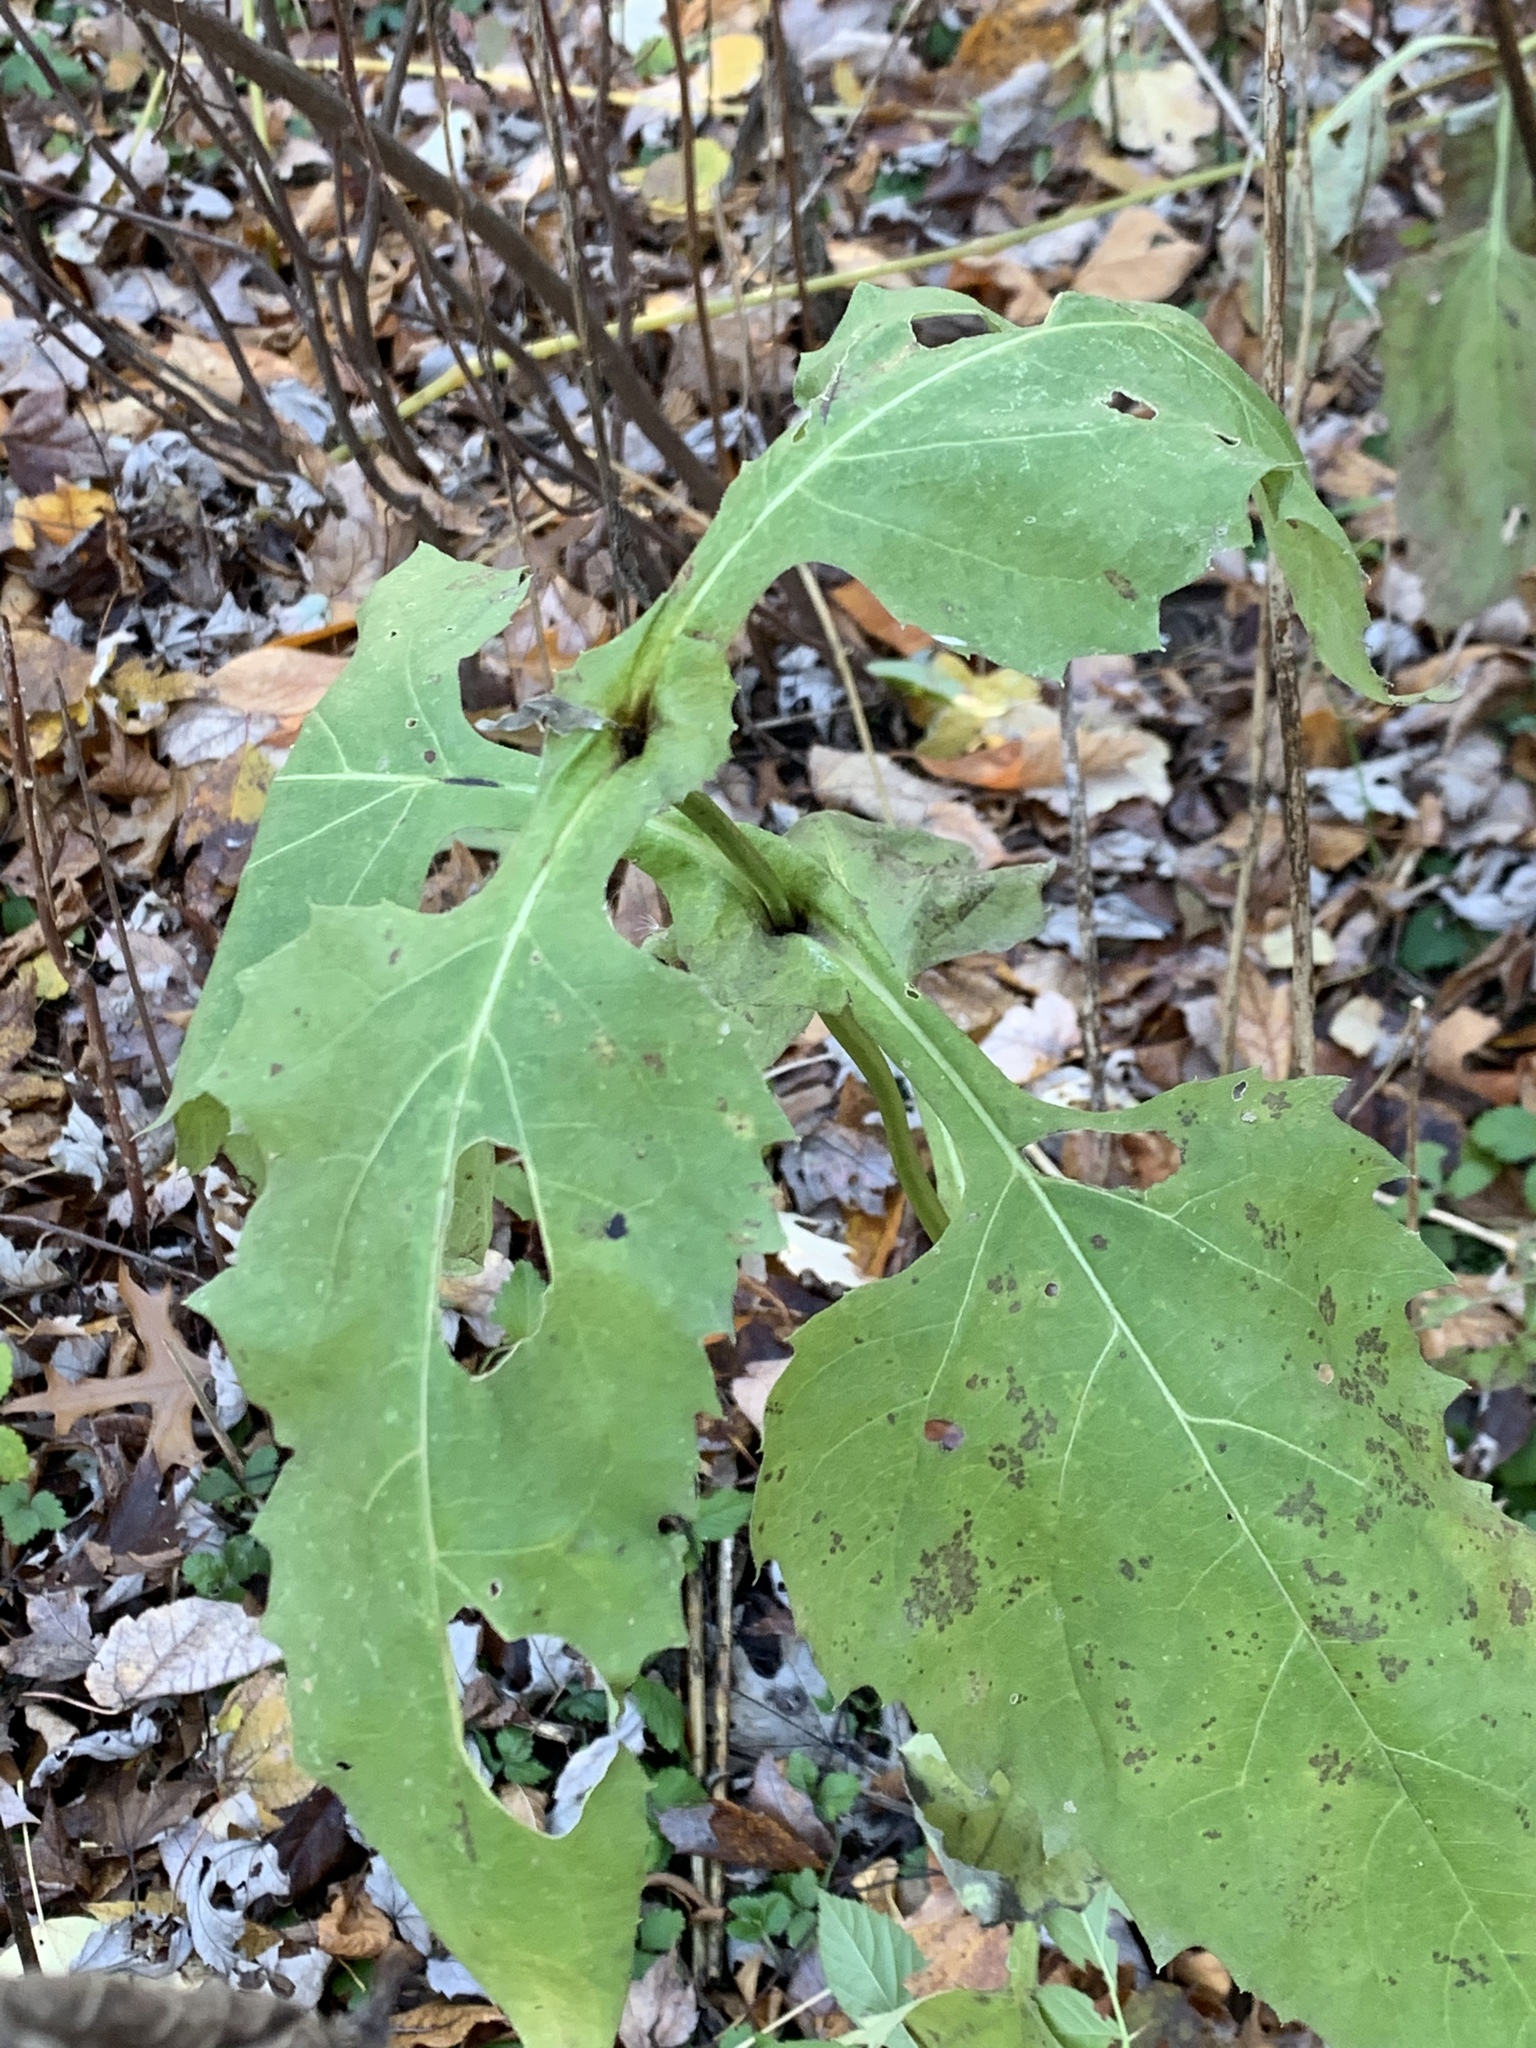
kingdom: Plantae
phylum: Tracheophyta
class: Magnoliopsida
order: Asterales
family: Asteraceae
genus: Silphium
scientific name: Silphium perfoliatum
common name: Cup-plant
